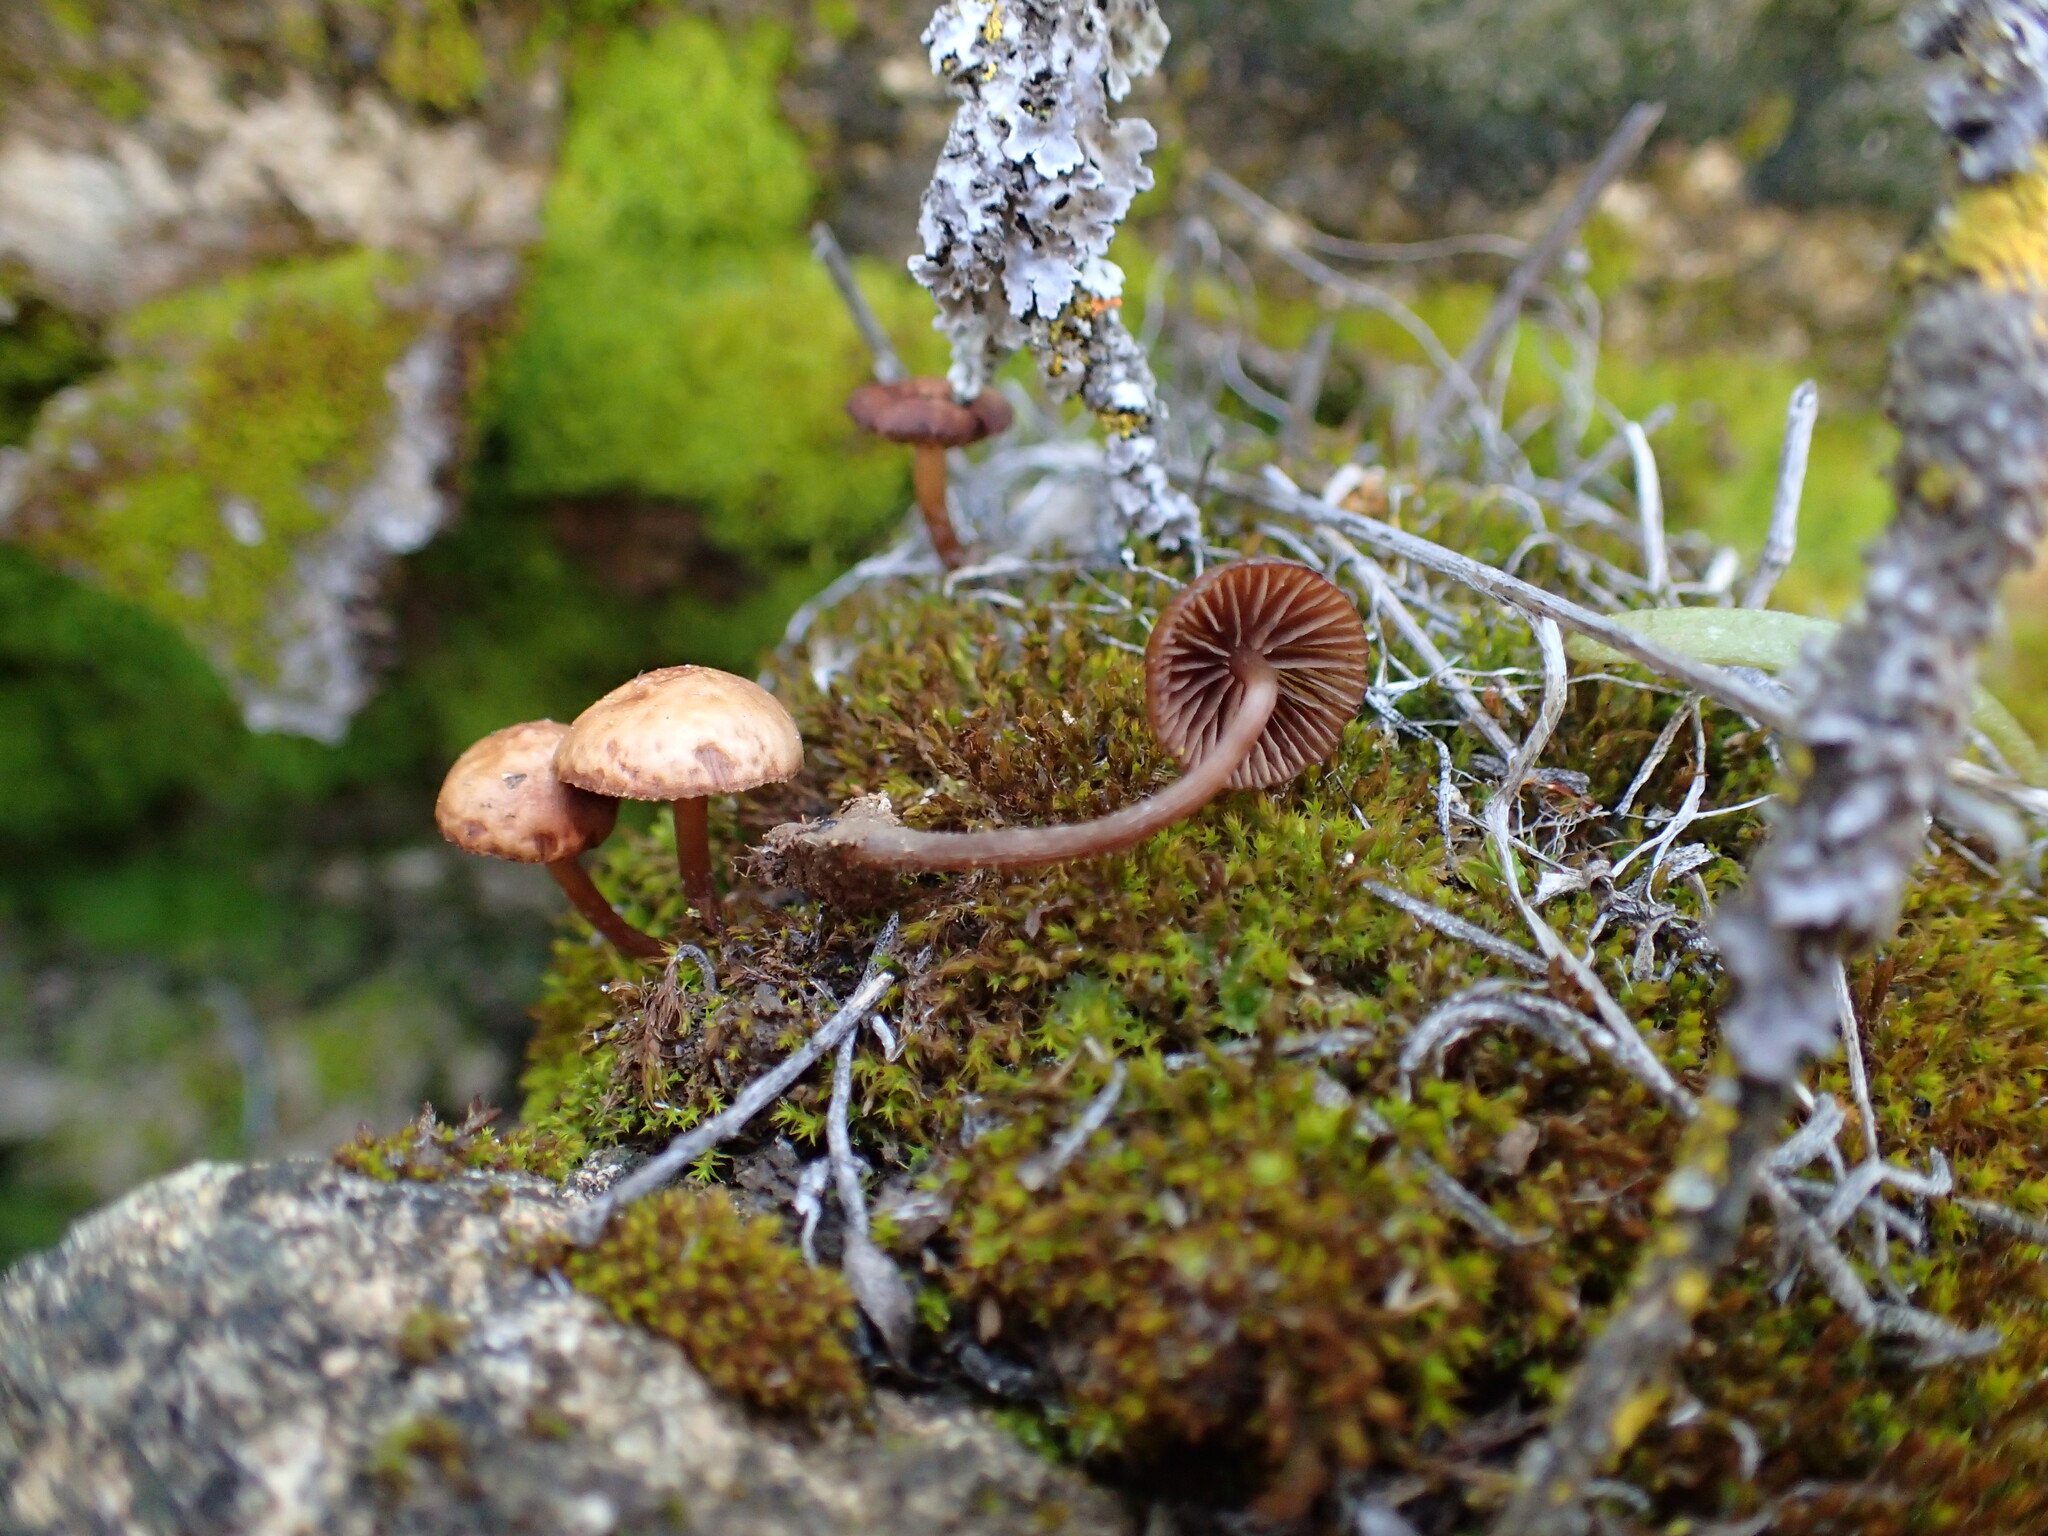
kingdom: Fungi
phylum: Basidiomycota
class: Agaricomycetes
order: Agaricales
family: Strophariaceae
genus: Deconica
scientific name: Deconica montana
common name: Mountain moss deconica
